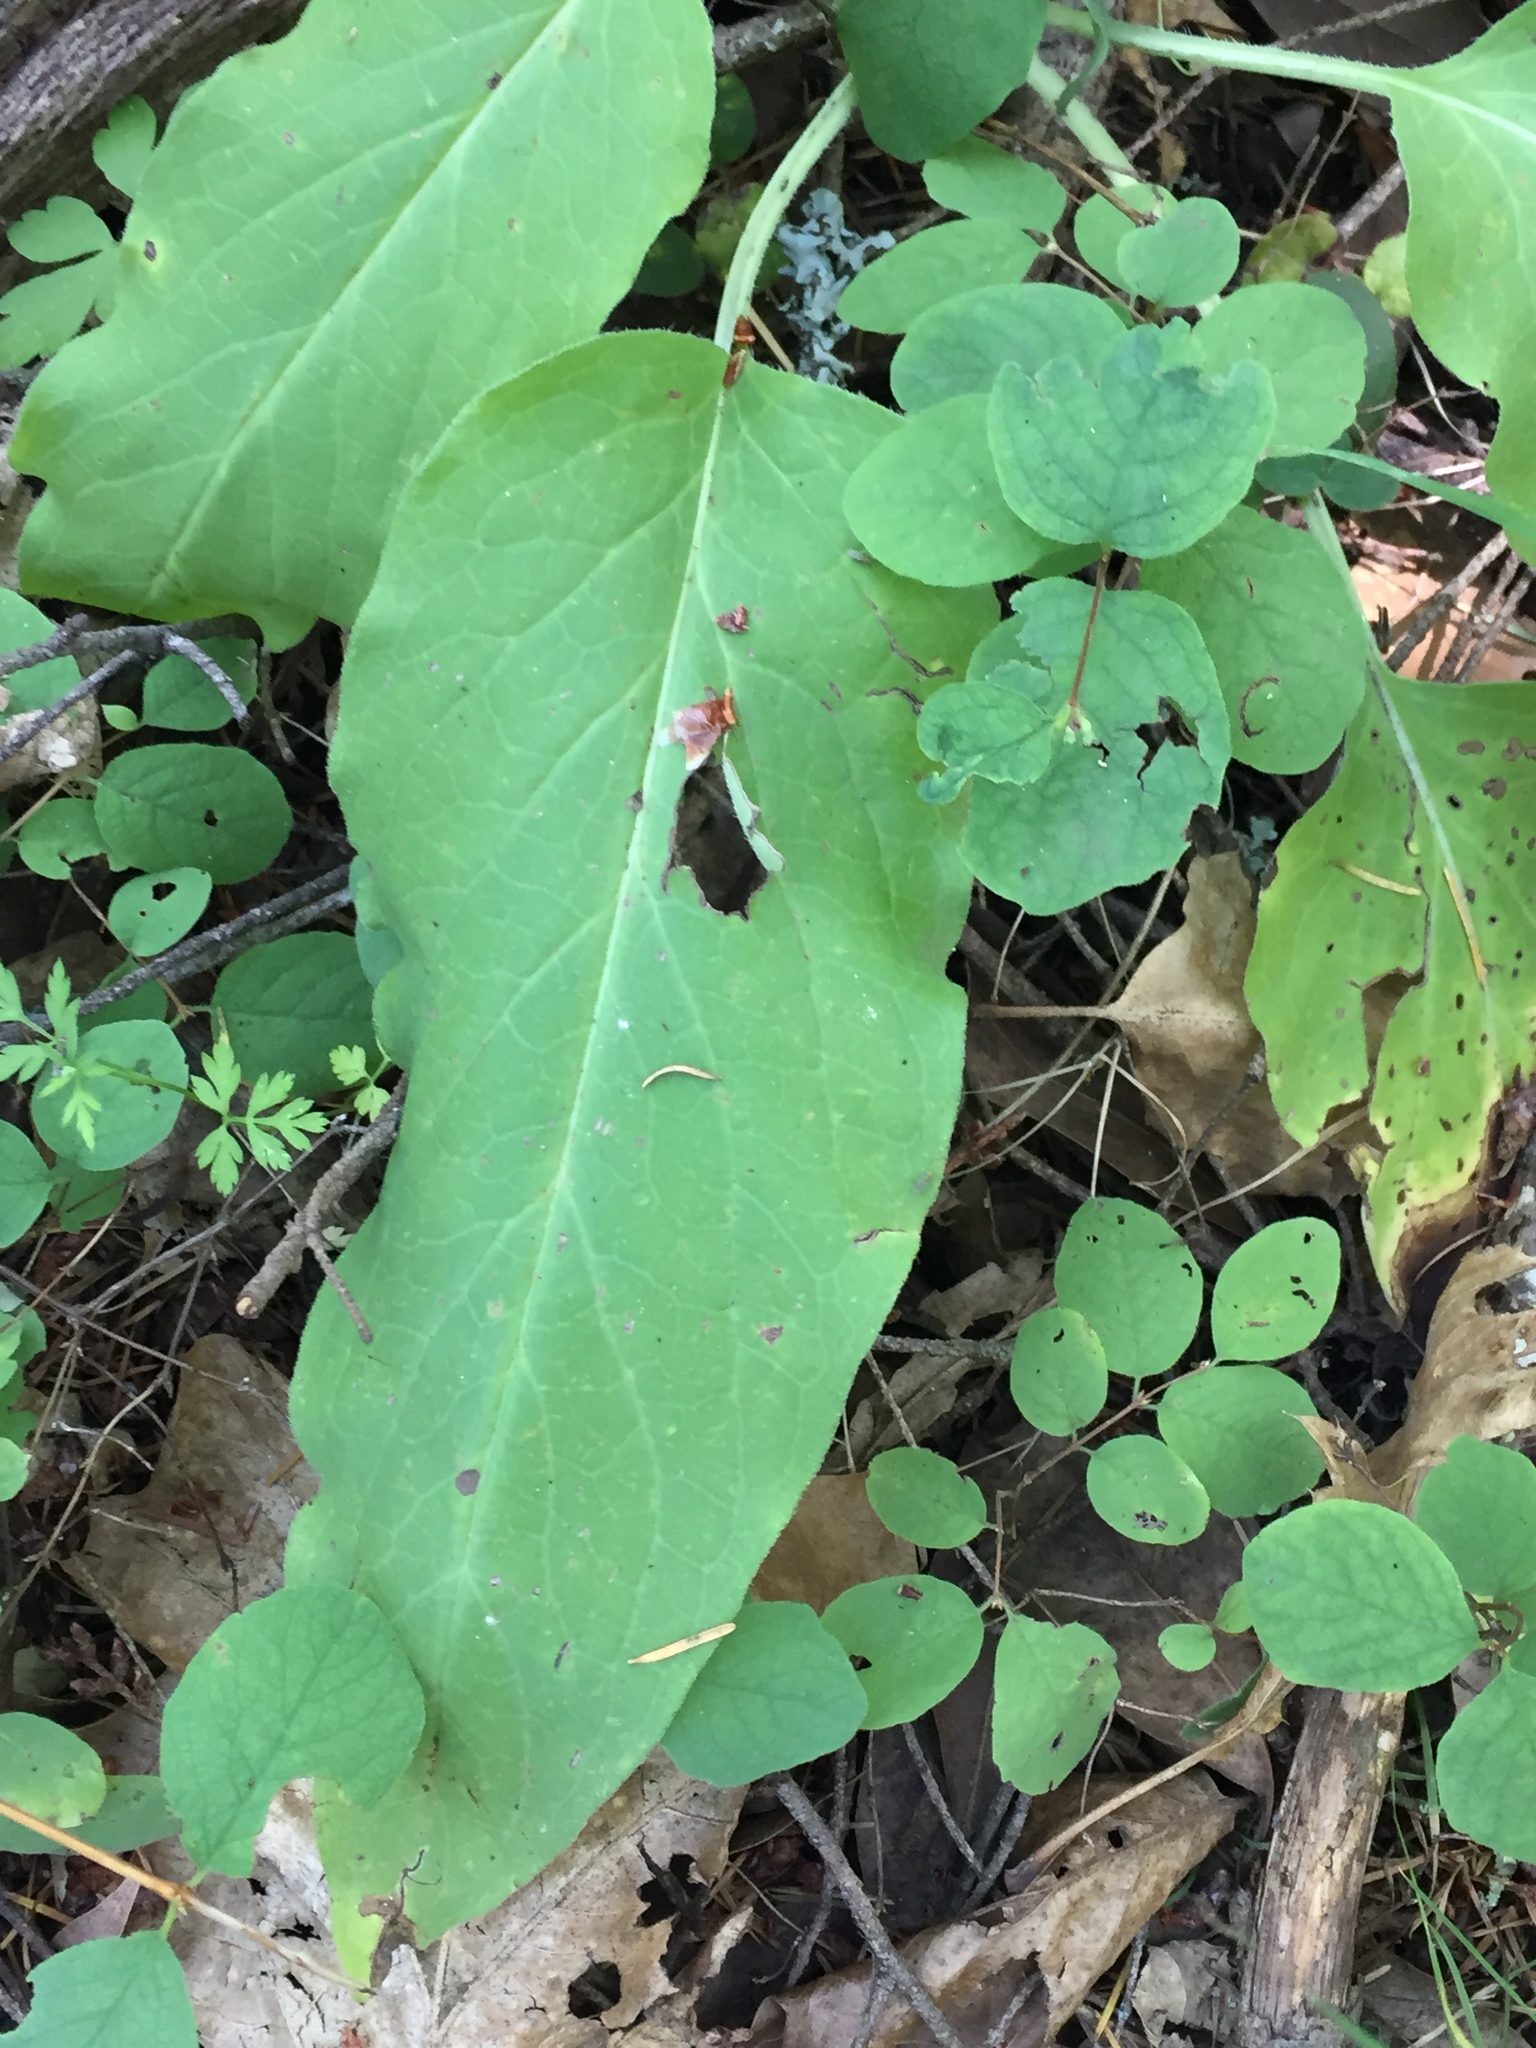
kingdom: Plantae
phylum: Tracheophyta
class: Magnoliopsida
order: Boraginales
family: Boraginaceae
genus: Adelinia
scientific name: Adelinia grande
